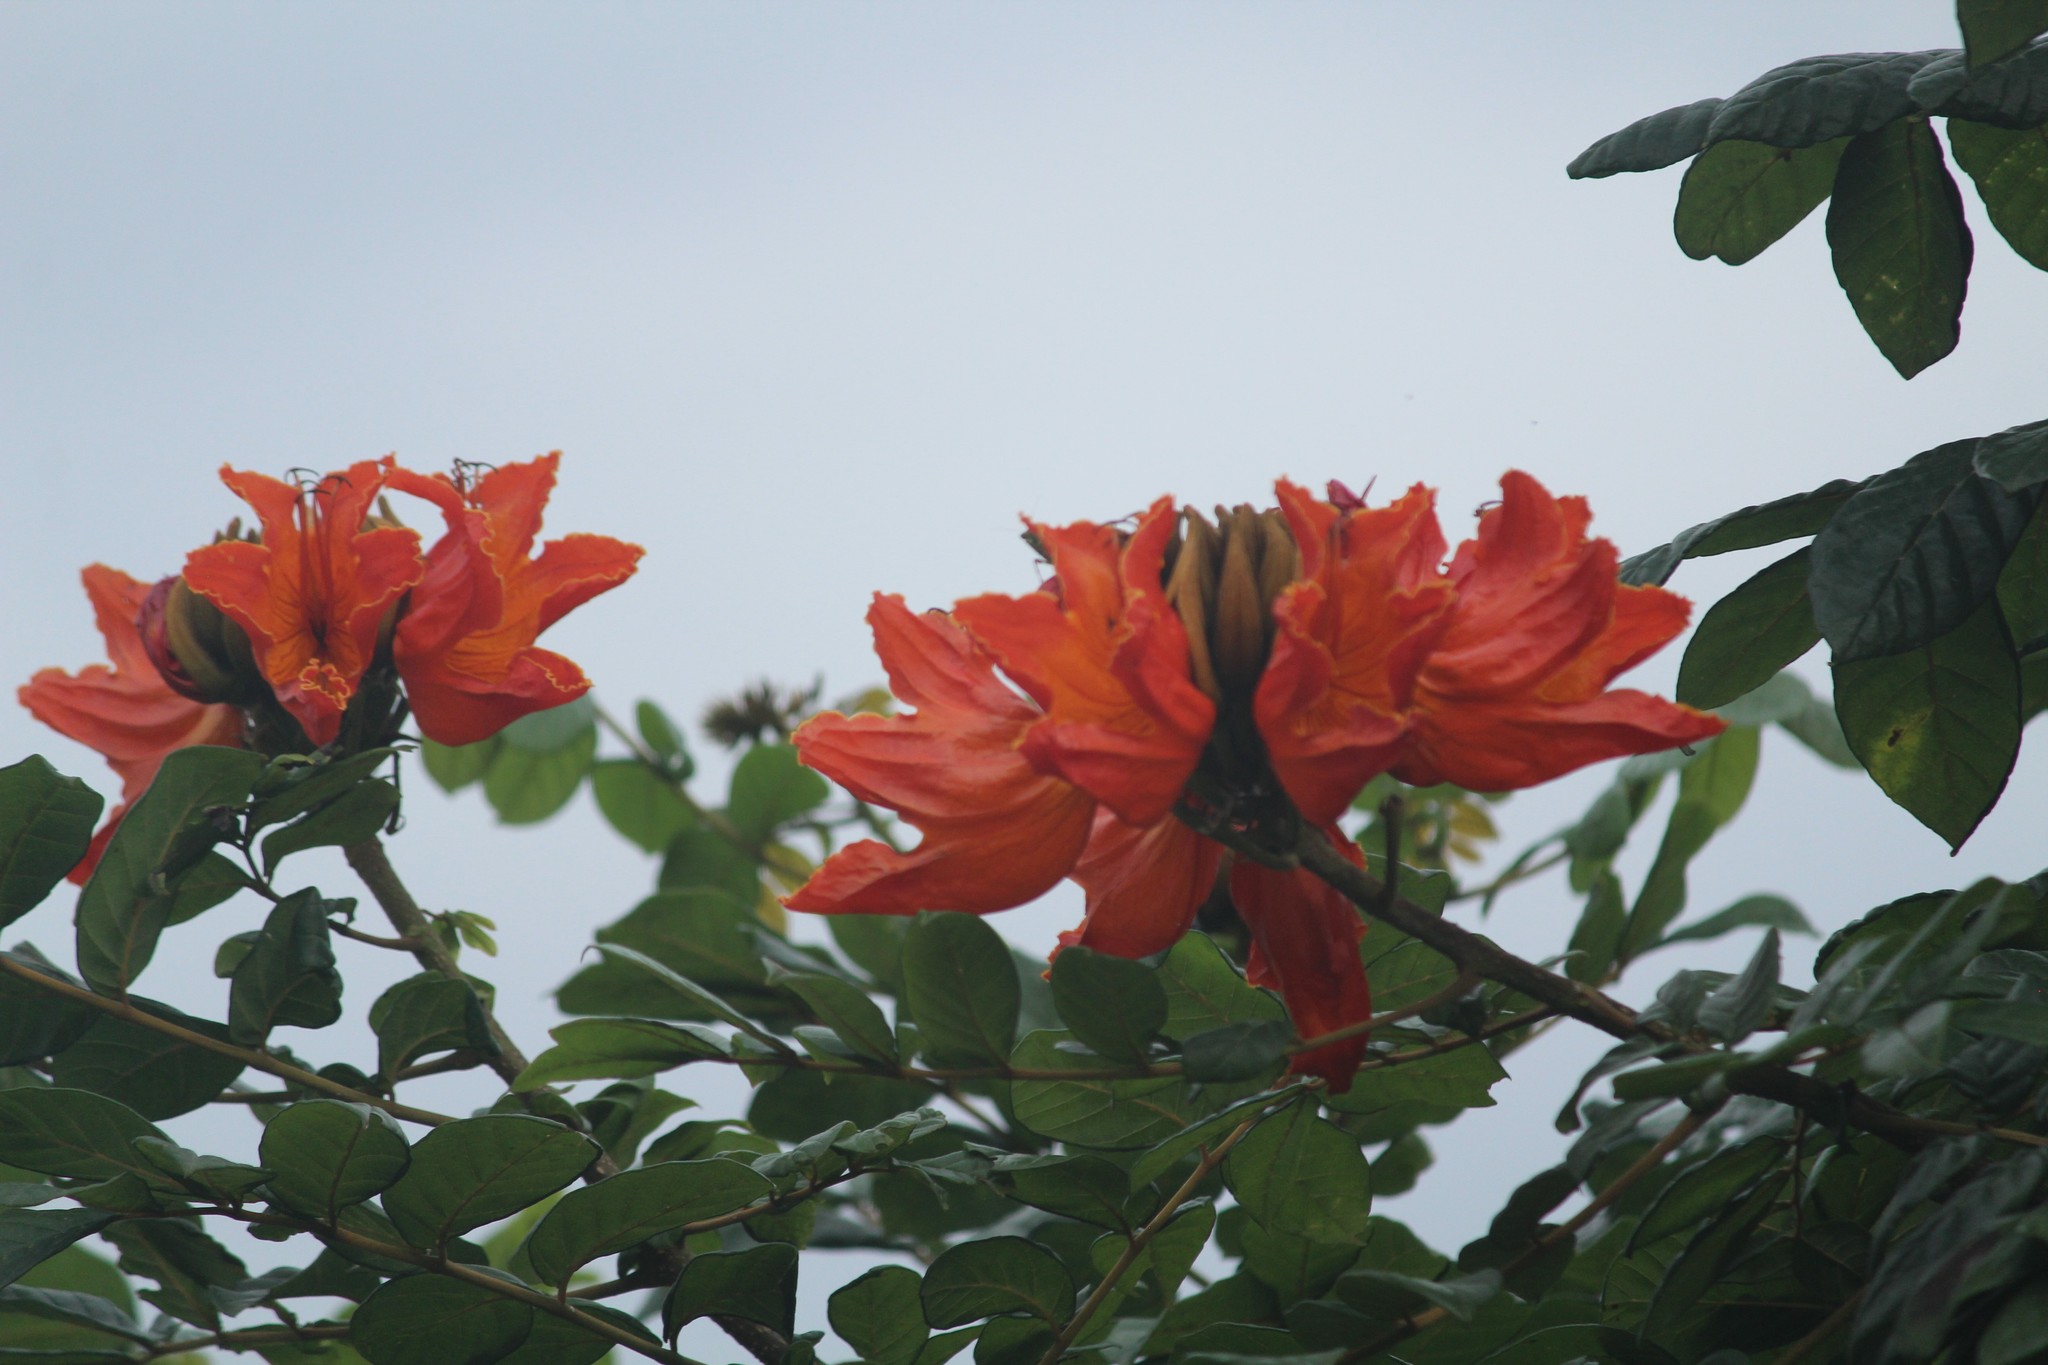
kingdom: Plantae
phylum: Tracheophyta
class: Magnoliopsida
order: Lamiales
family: Bignoniaceae
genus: Spathodea
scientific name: Spathodea campanulata
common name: African tuliptree
